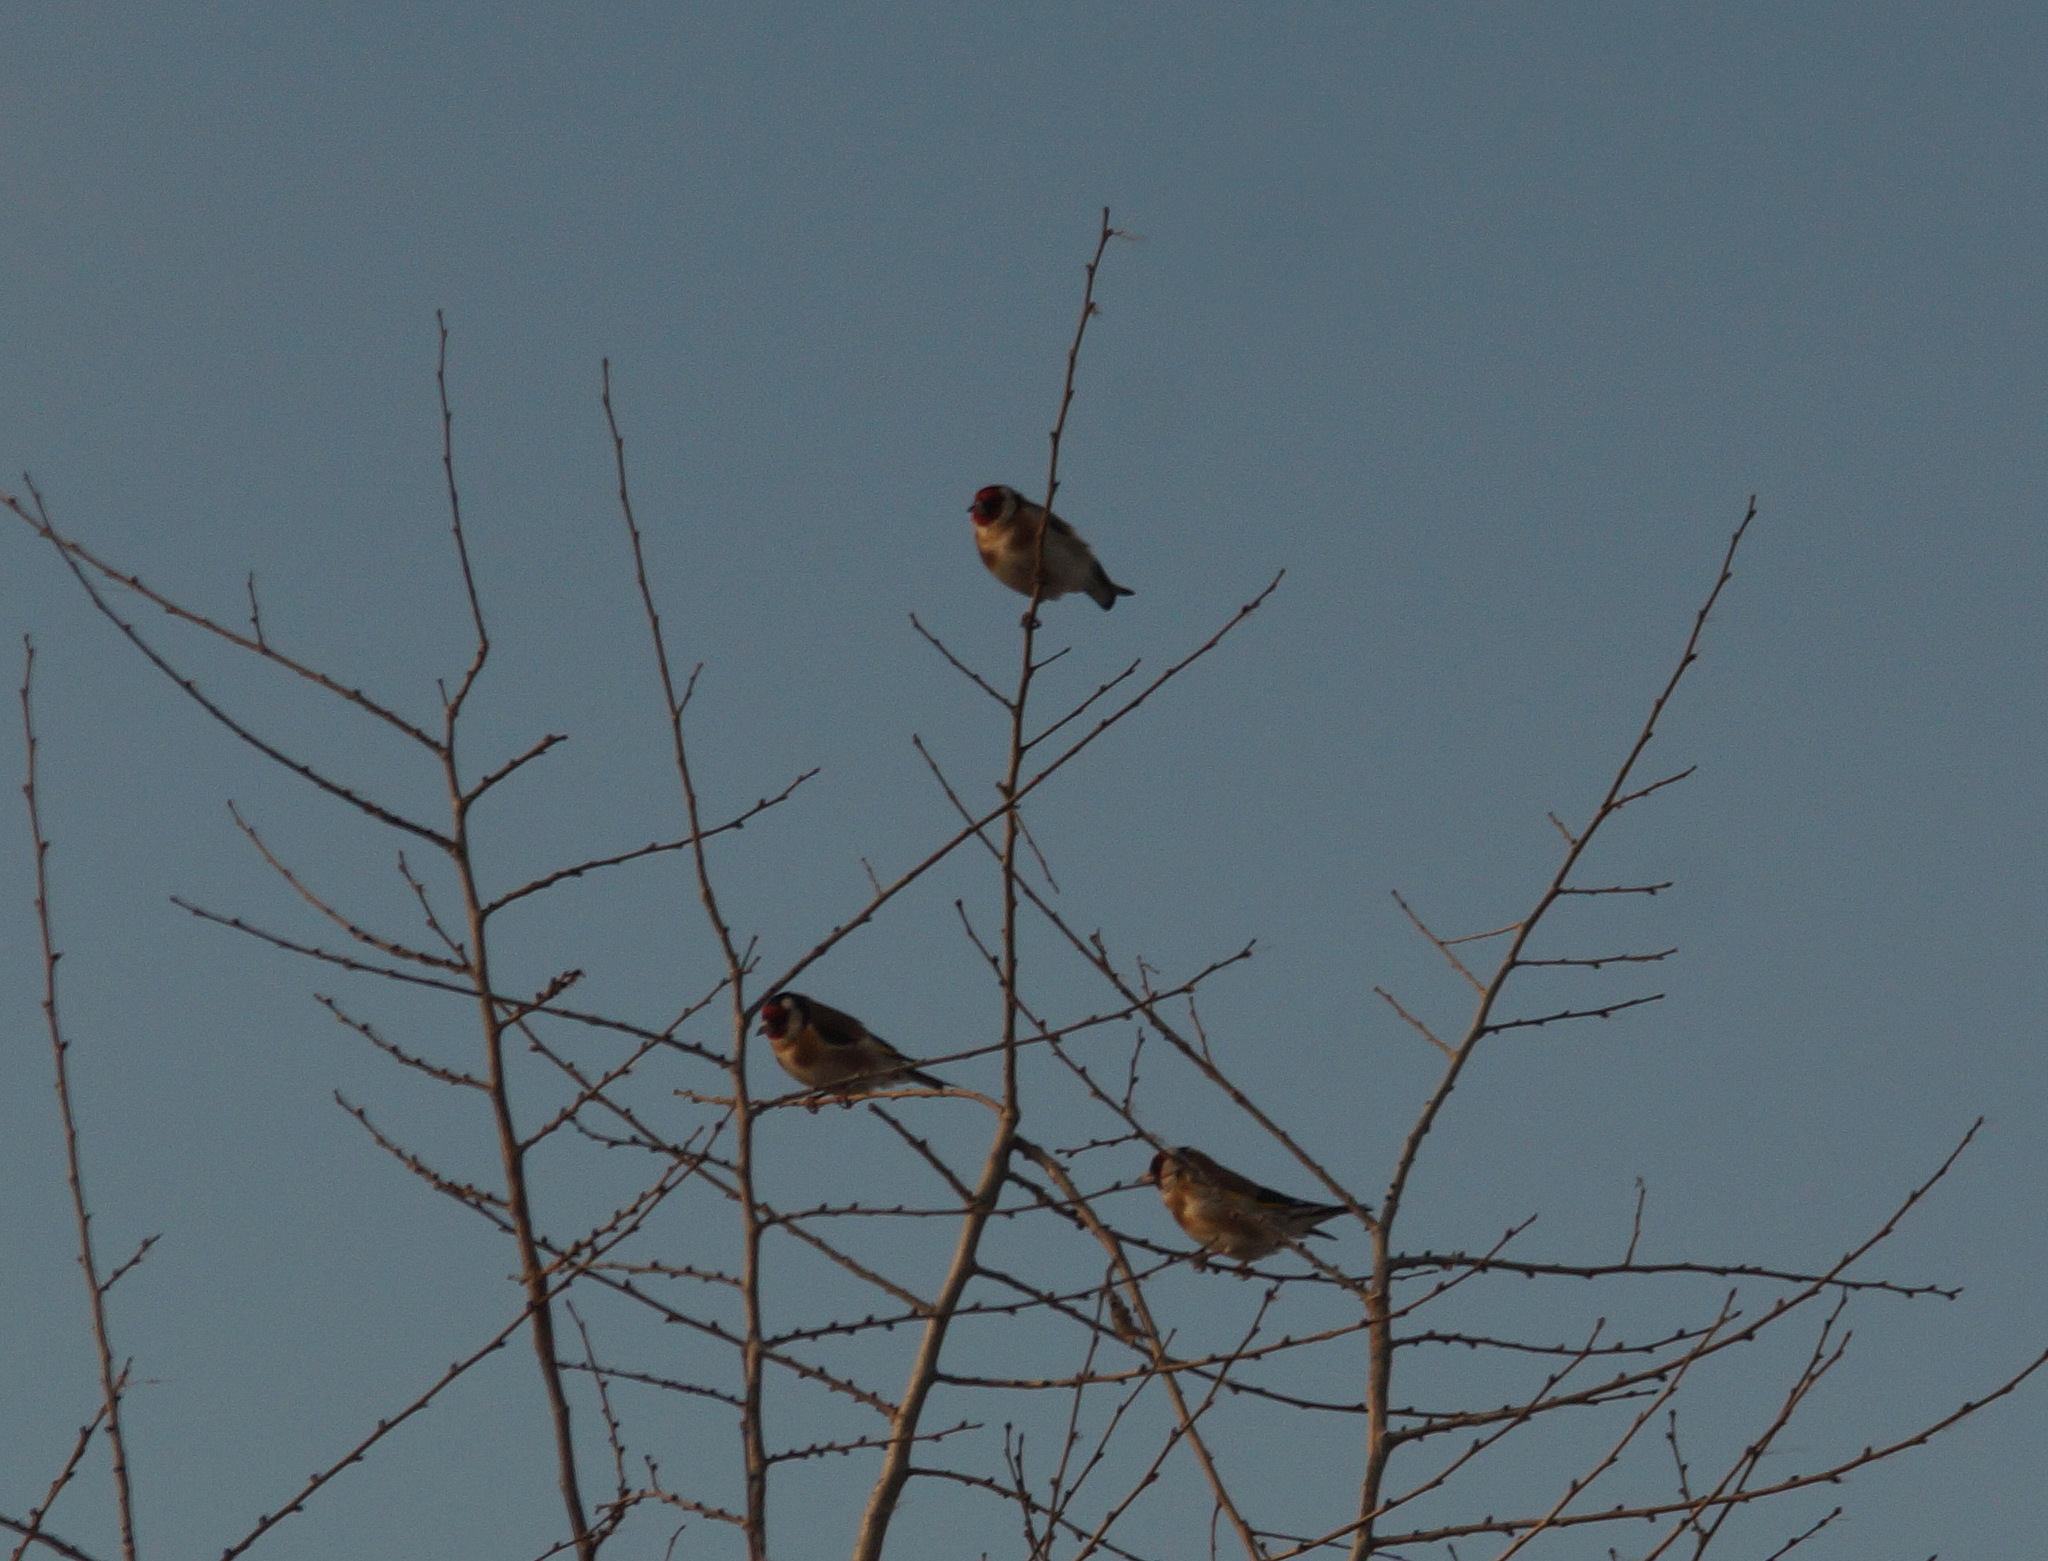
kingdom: Animalia
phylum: Chordata
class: Aves
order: Passeriformes
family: Fringillidae
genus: Carduelis
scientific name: Carduelis carduelis
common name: European goldfinch
